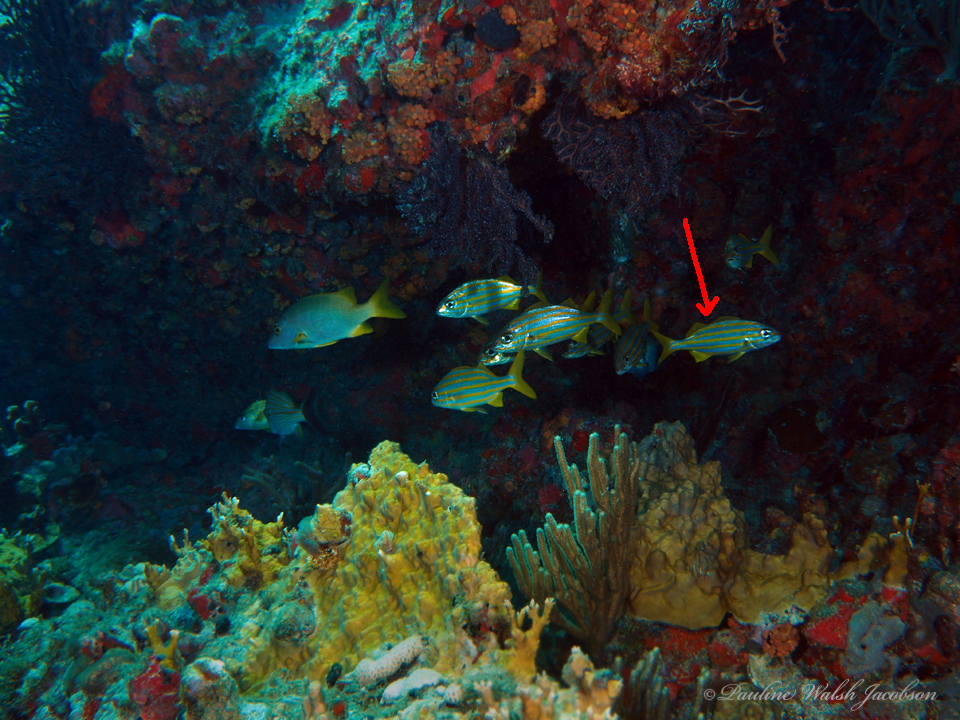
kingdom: Animalia
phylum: Chordata
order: Perciformes
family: Haemulidae
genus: Haemulon
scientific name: Haemulon chrysargyreum
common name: Smallmouth grunt
